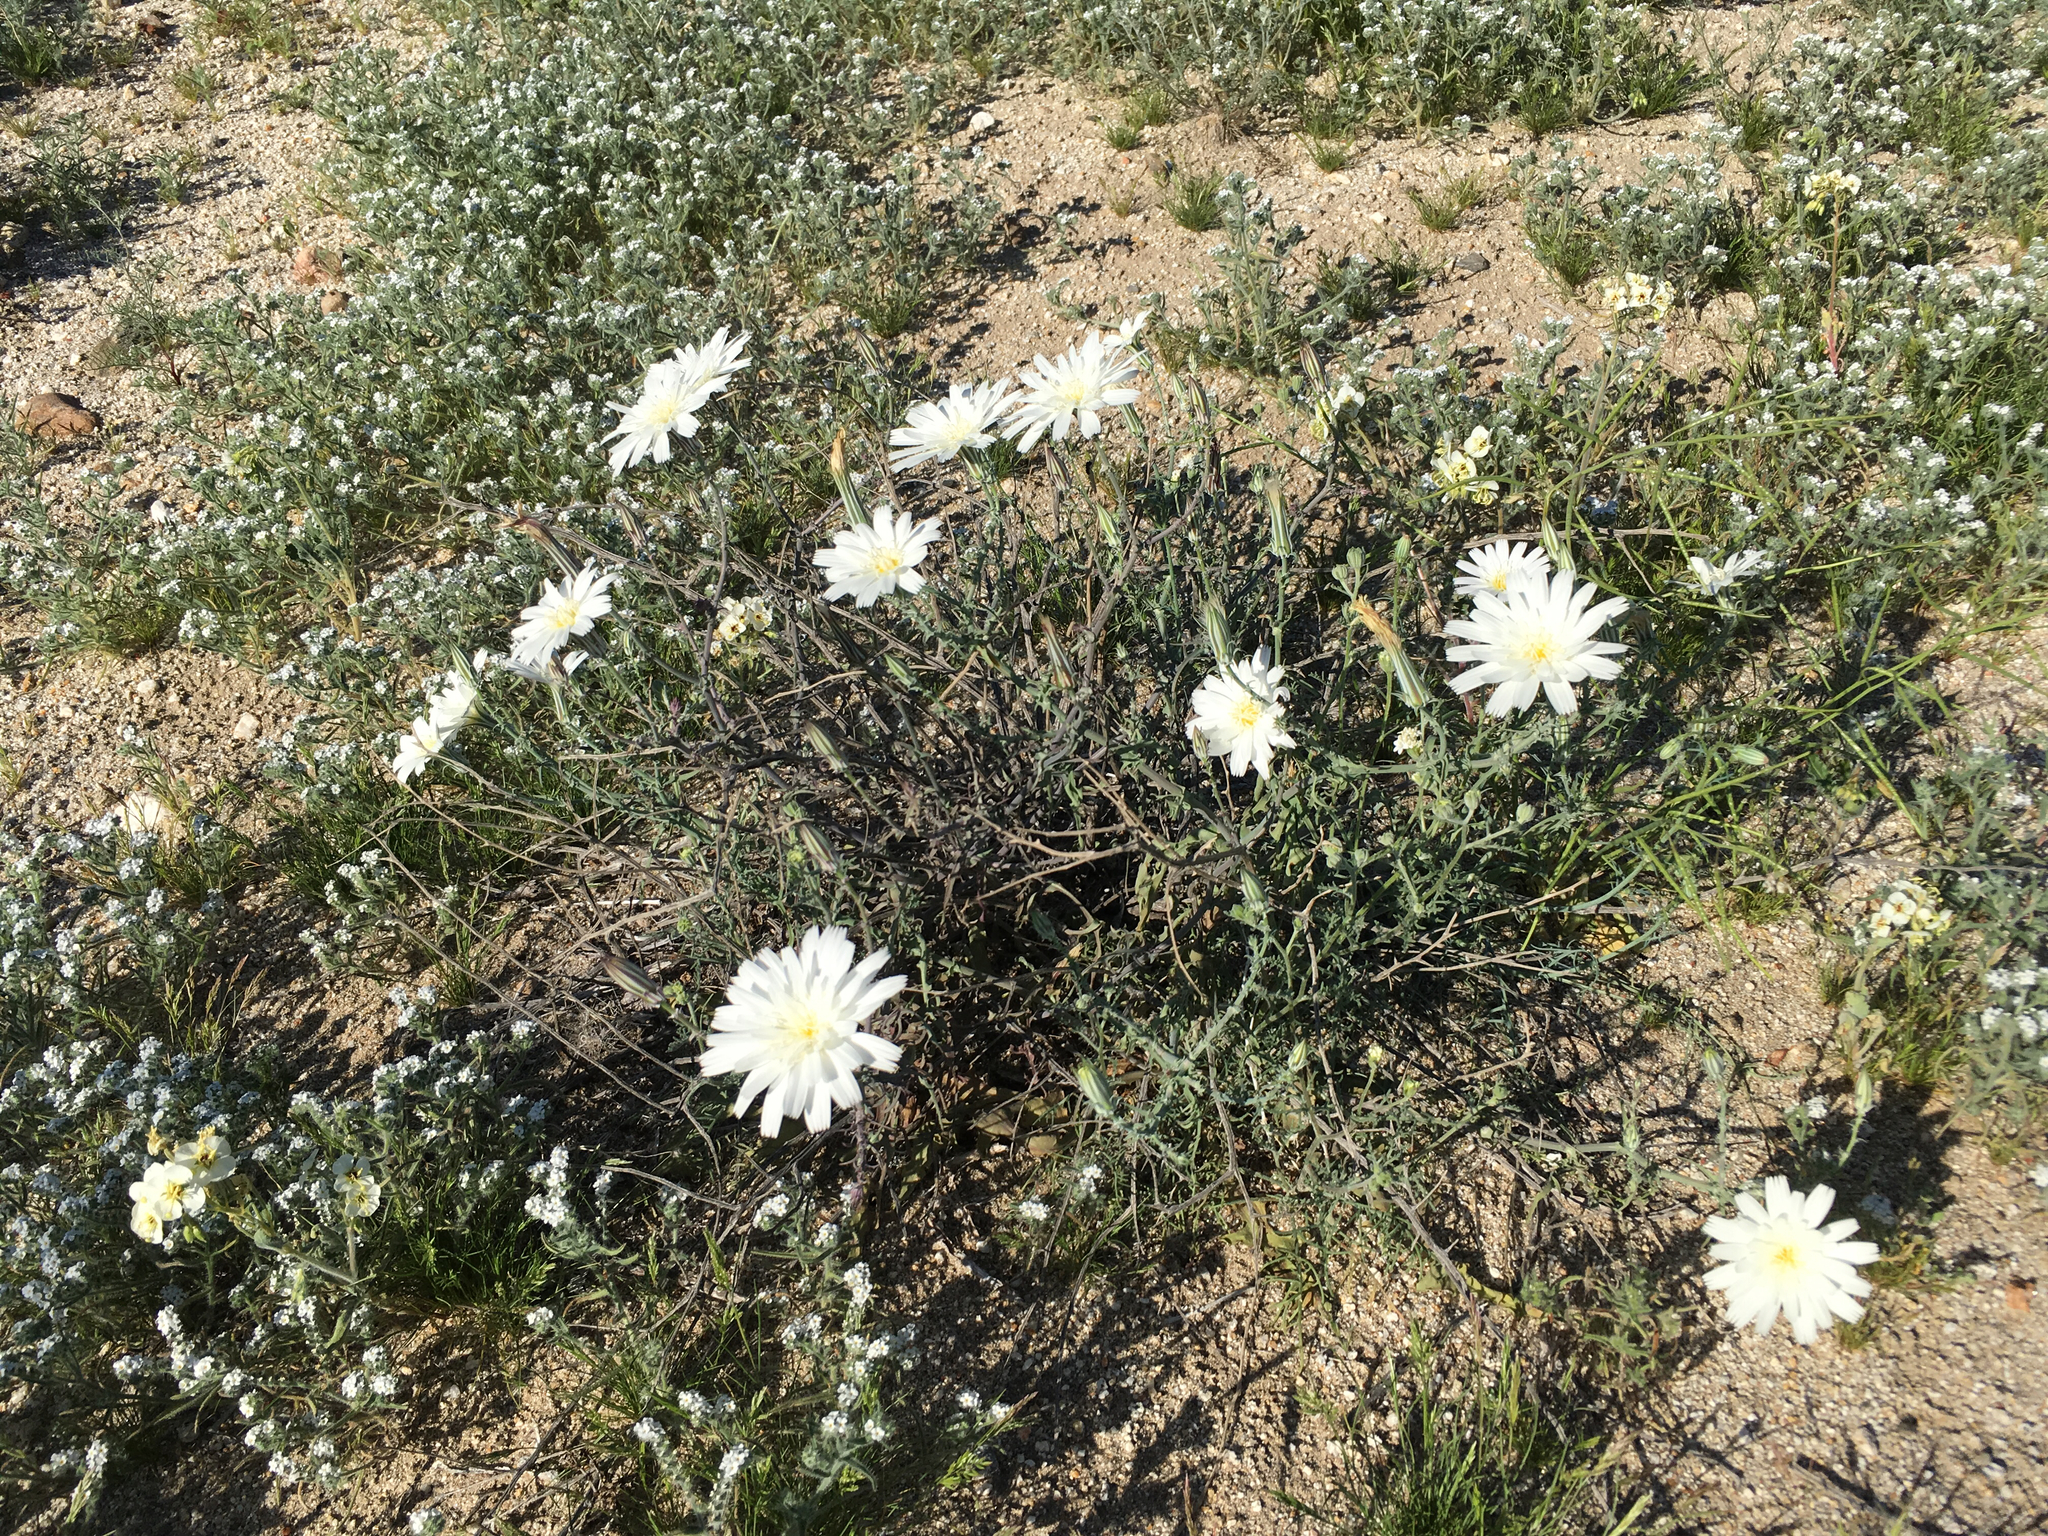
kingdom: Plantae
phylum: Tracheophyta
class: Magnoliopsida
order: Asterales
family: Asteraceae
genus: Rafinesquia
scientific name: Rafinesquia neomexicana
